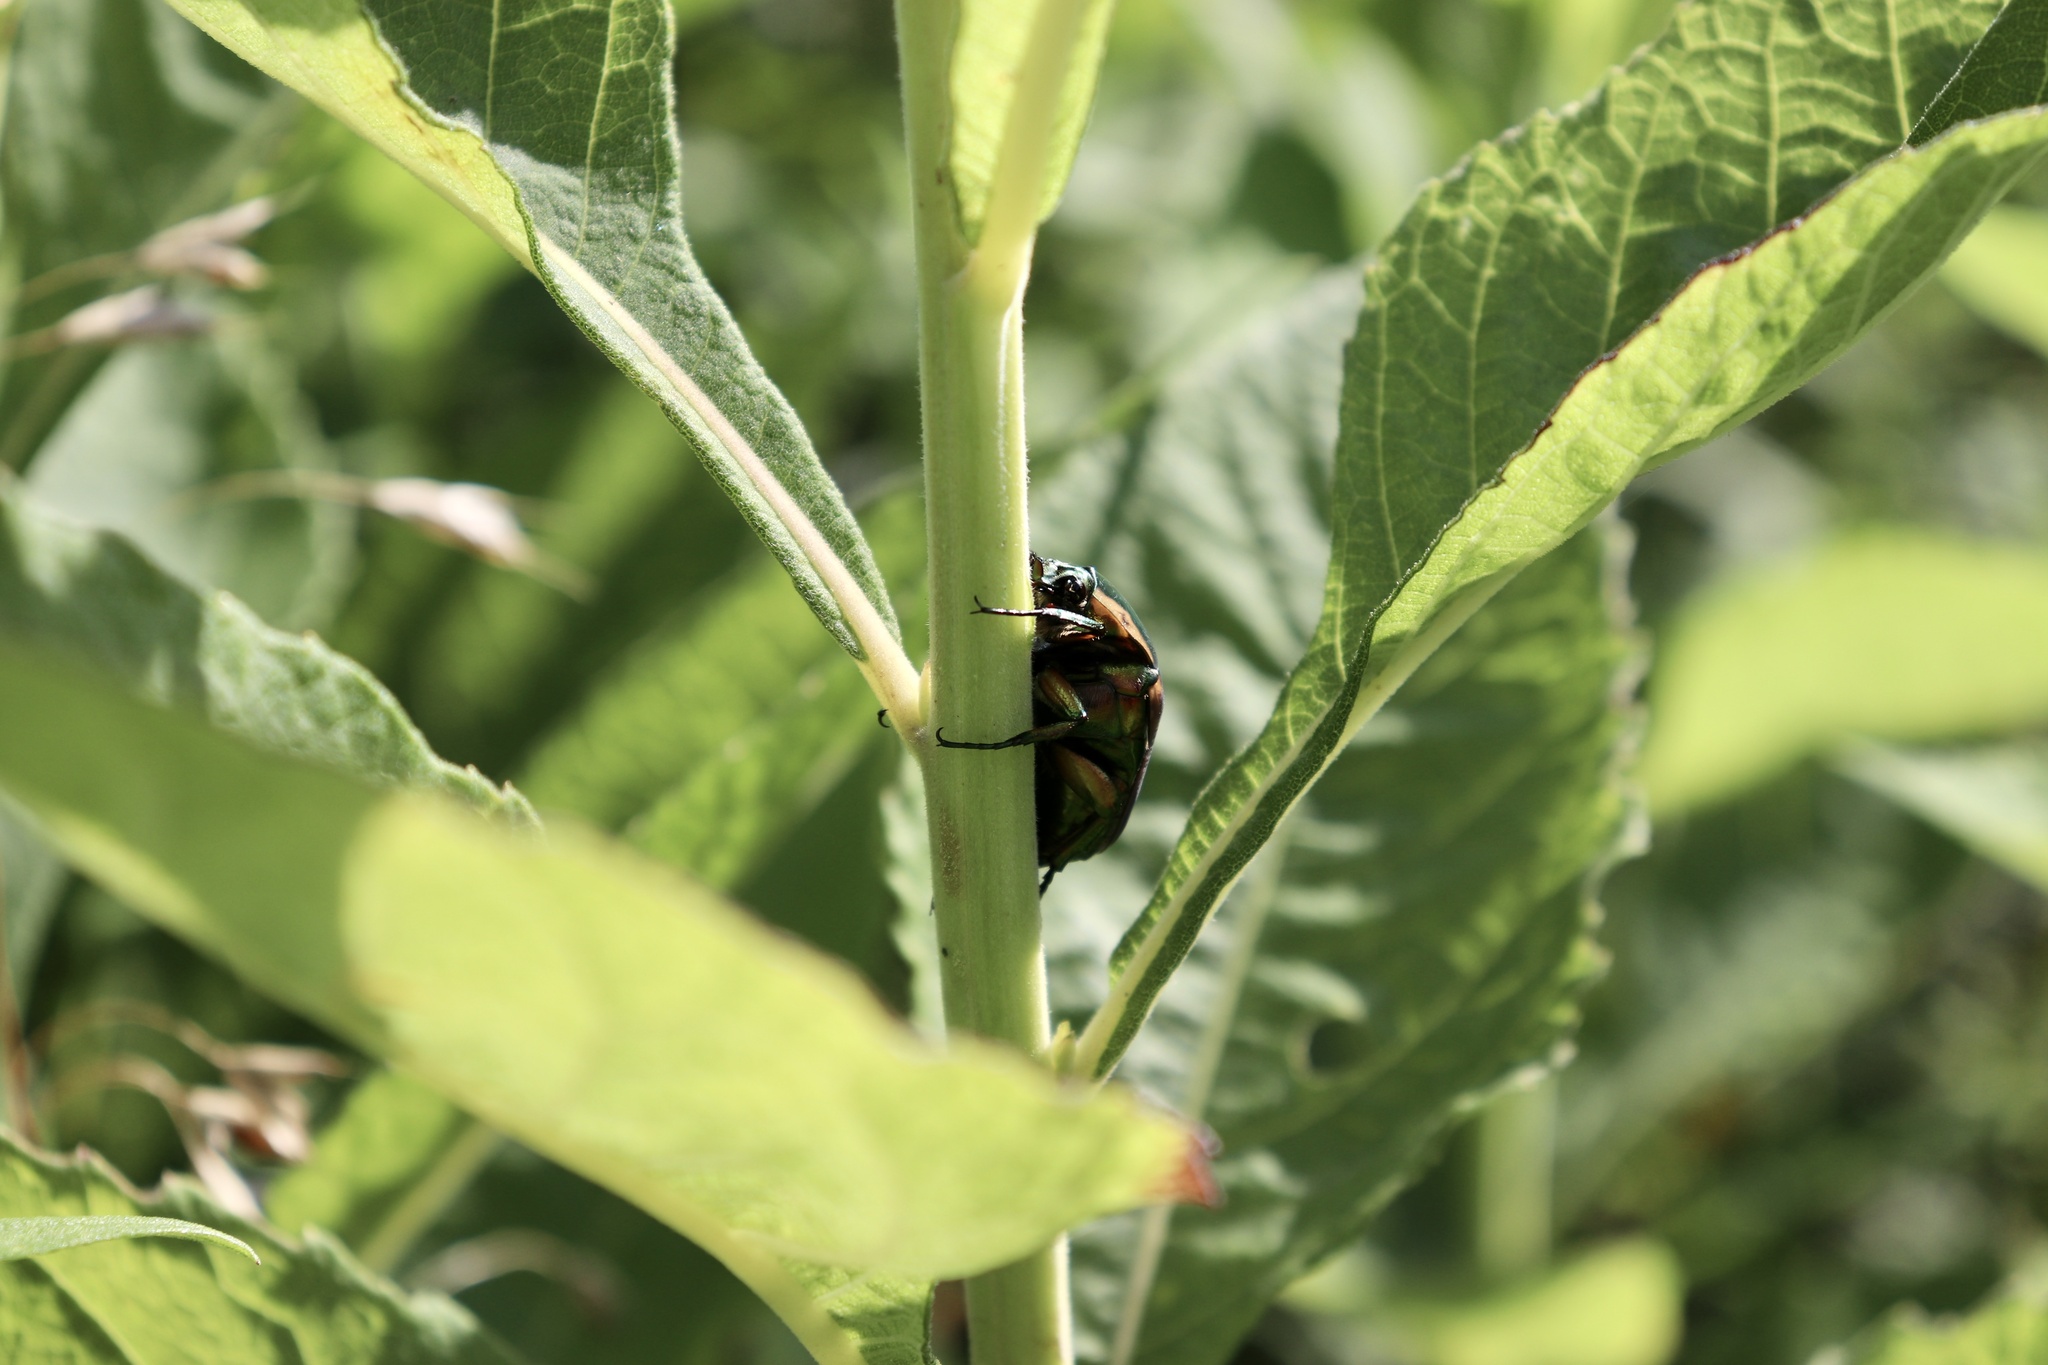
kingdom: Animalia
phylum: Arthropoda
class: Insecta
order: Coleoptera
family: Scarabaeidae
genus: Cotinis
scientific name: Cotinis nitida
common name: Common green june beetle
